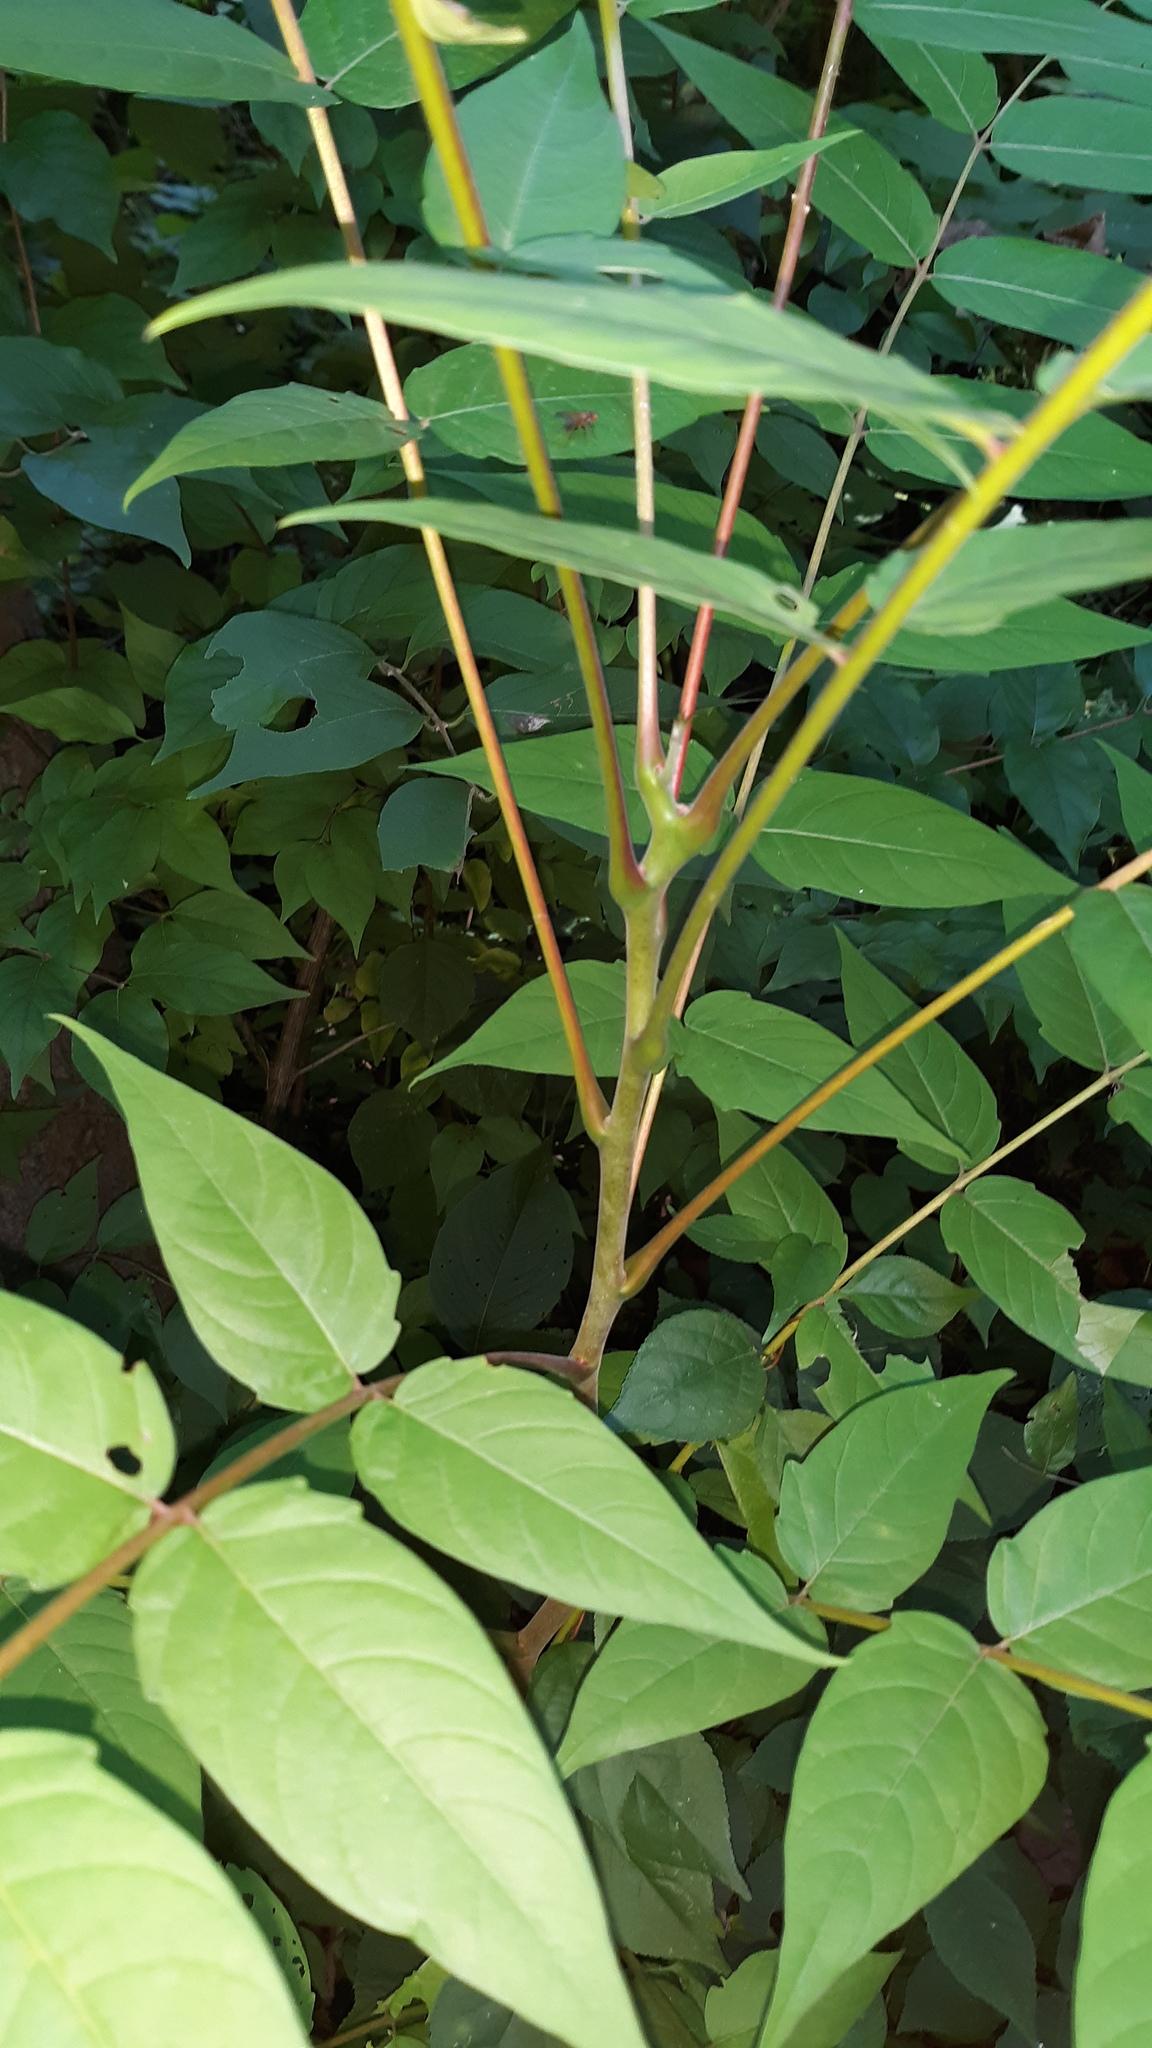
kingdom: Plantae
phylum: Tracheophyta
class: Magnoliopsida
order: Sapindales
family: Simaroubaceae
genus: Ailanthus
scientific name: Ailanthus altissima
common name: Tree-of-heaven
